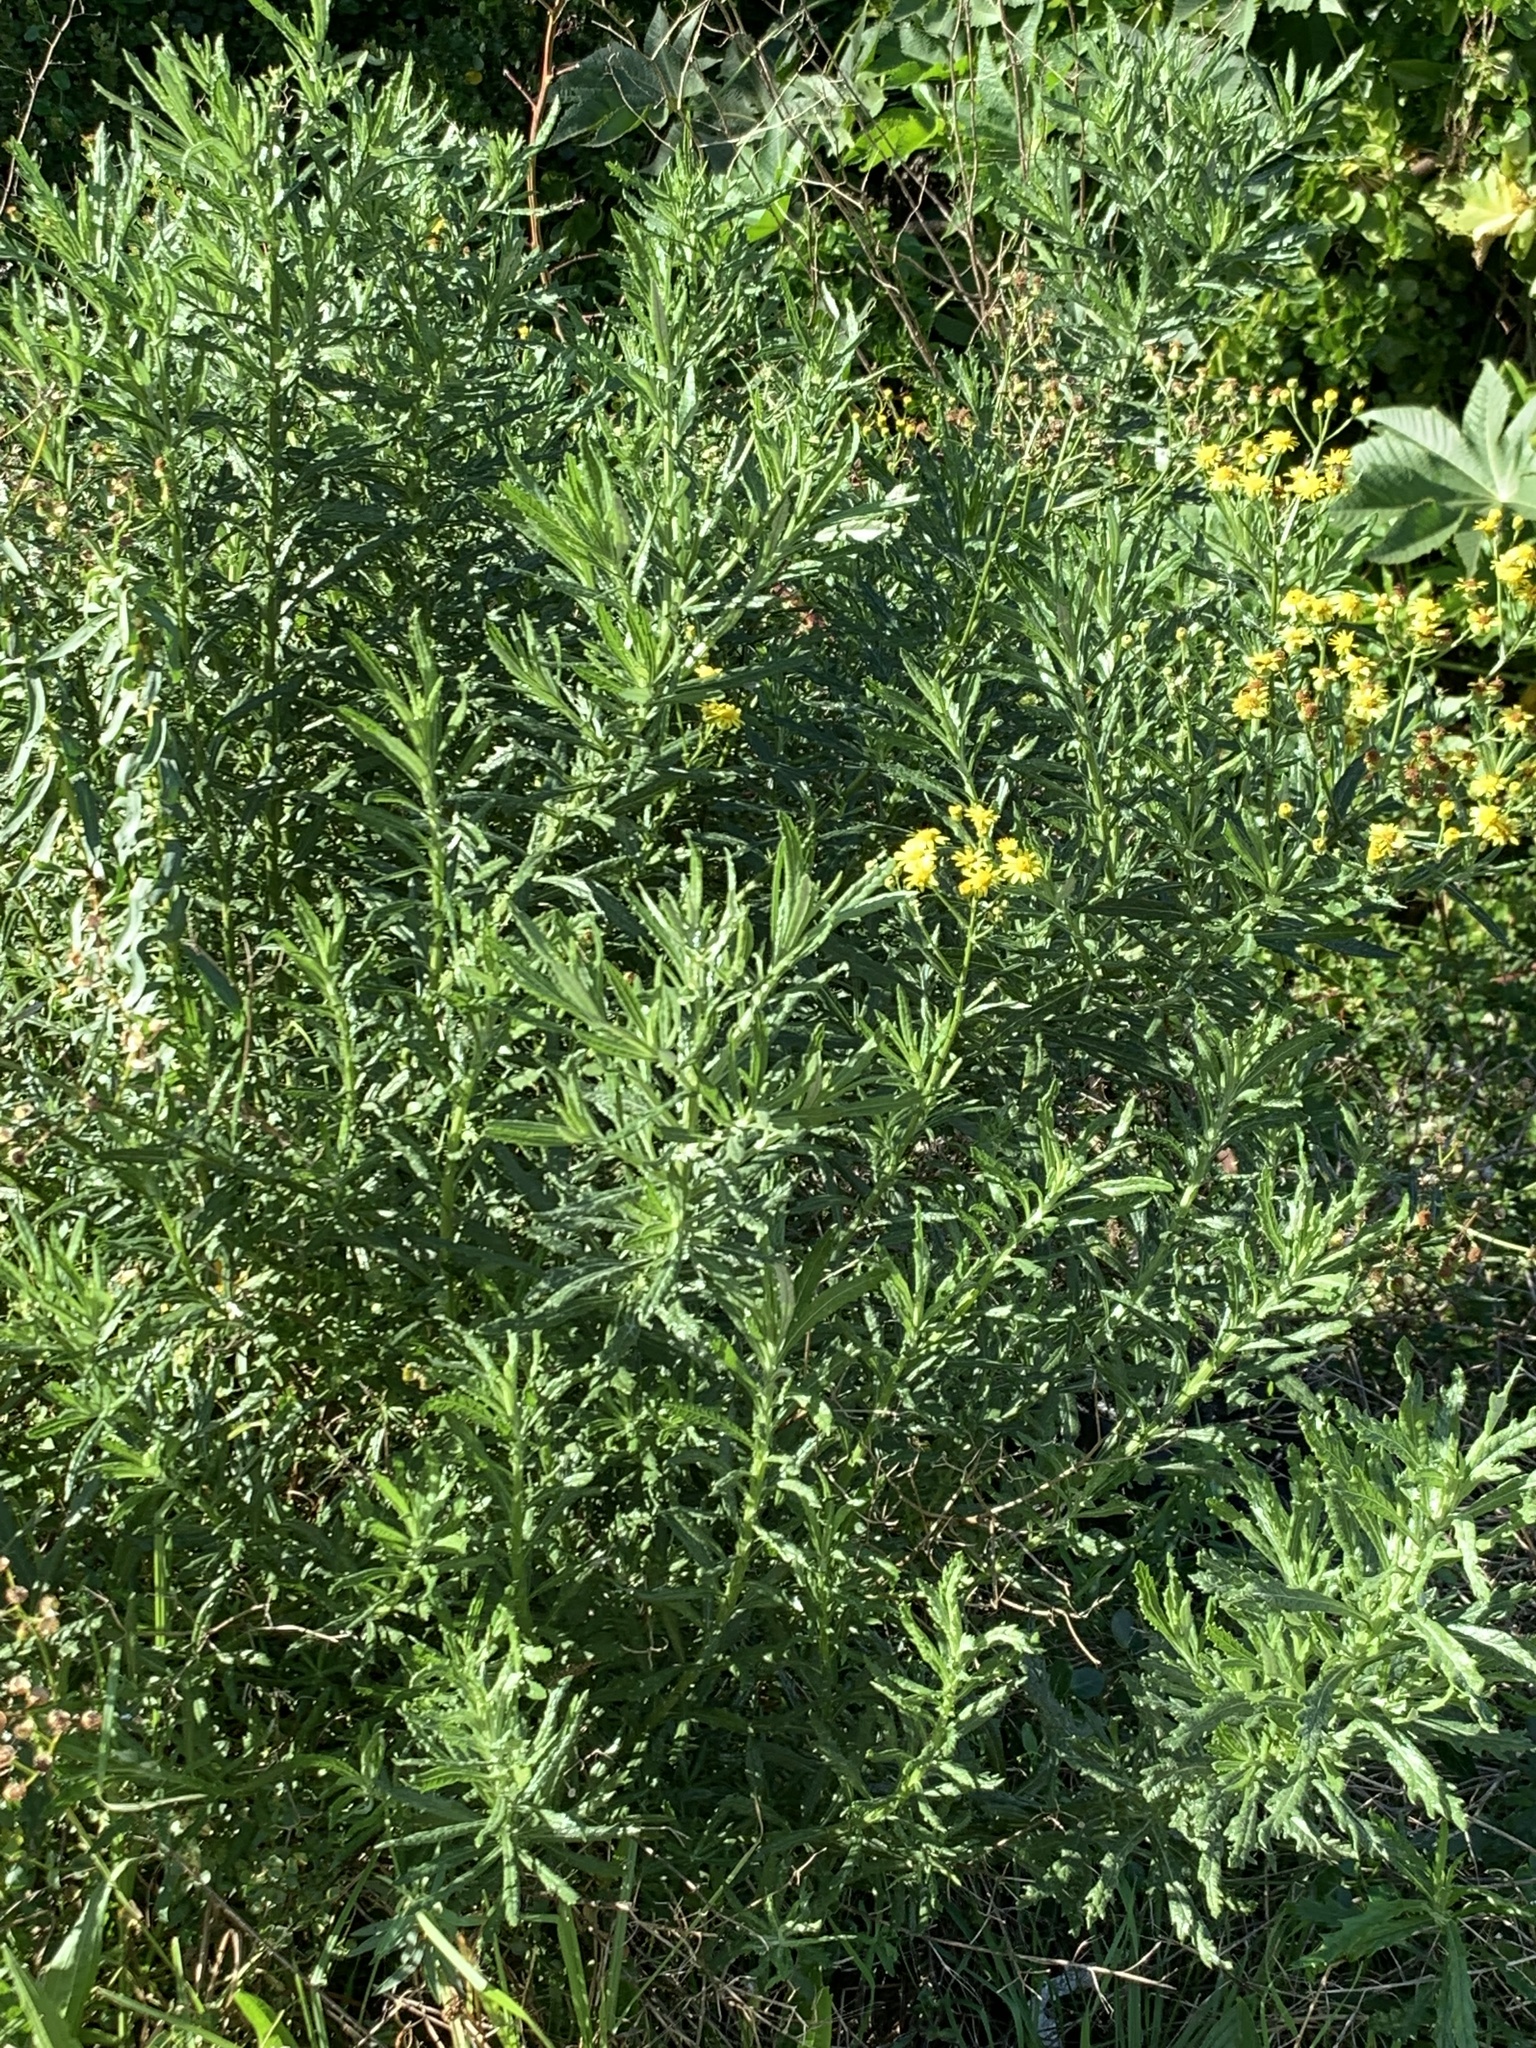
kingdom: Plantae
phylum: Tracheophyta
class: Magnoliopsida
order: Asterales
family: Asteraceae
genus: Senecio
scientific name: Senecio pterophorus
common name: Shoddy ragwort
